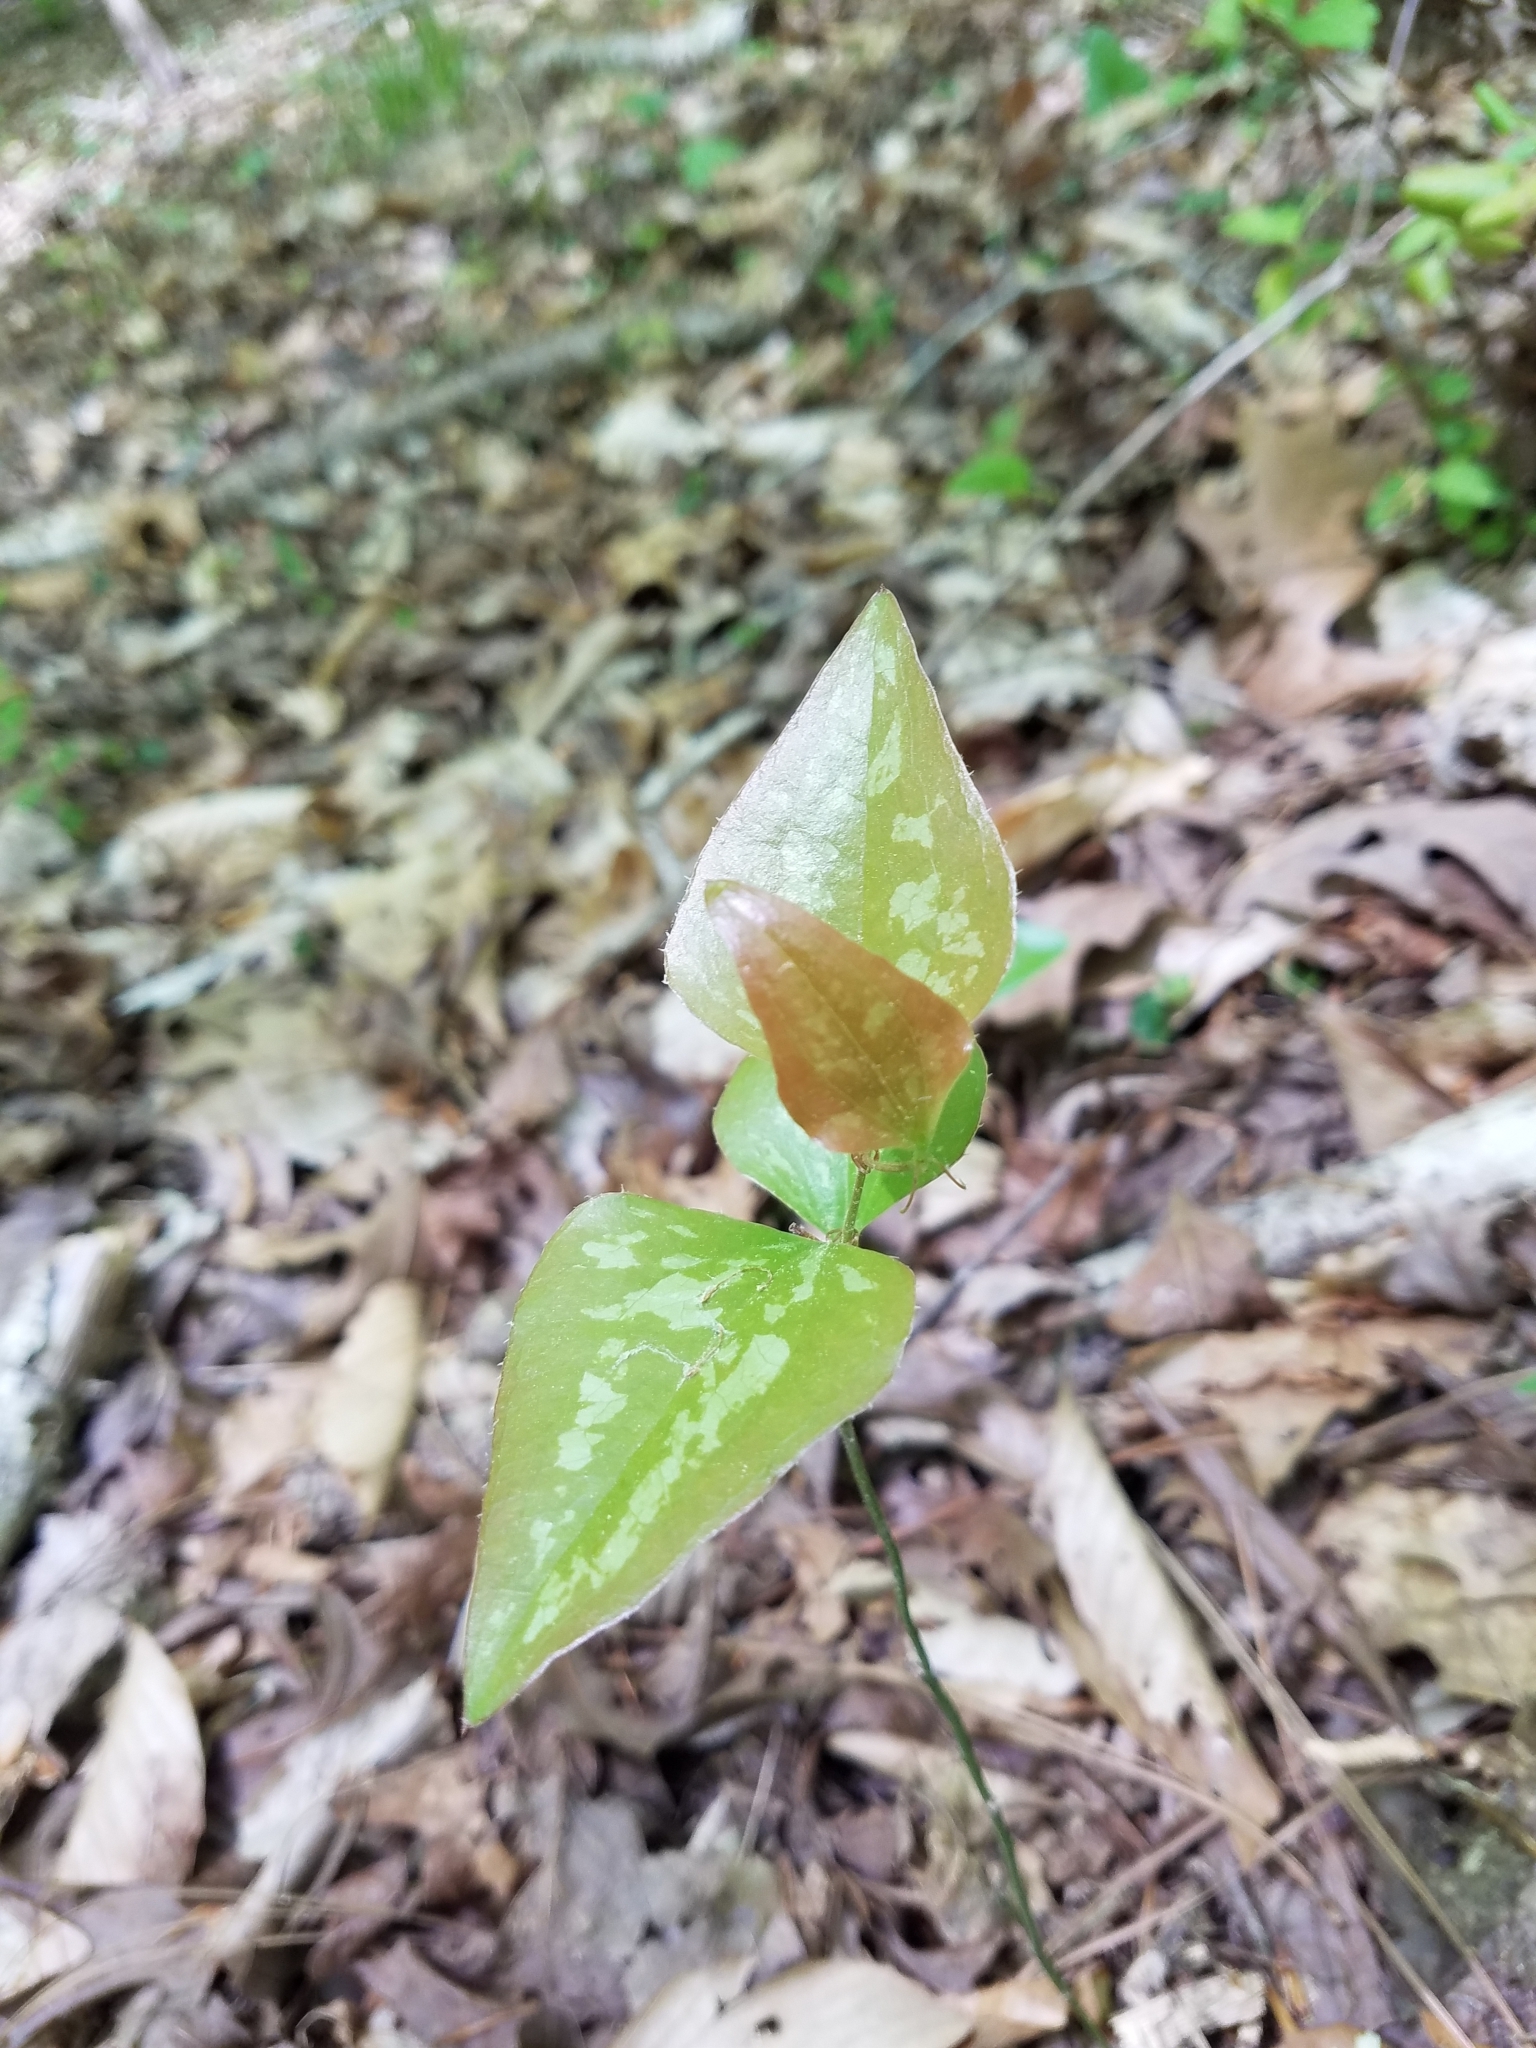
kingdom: Plantae
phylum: Tracheophyta
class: Liliopsida
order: Liliales
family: Smilacaceae
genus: Smilax
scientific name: Smilax bona-nox
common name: Catbrier
